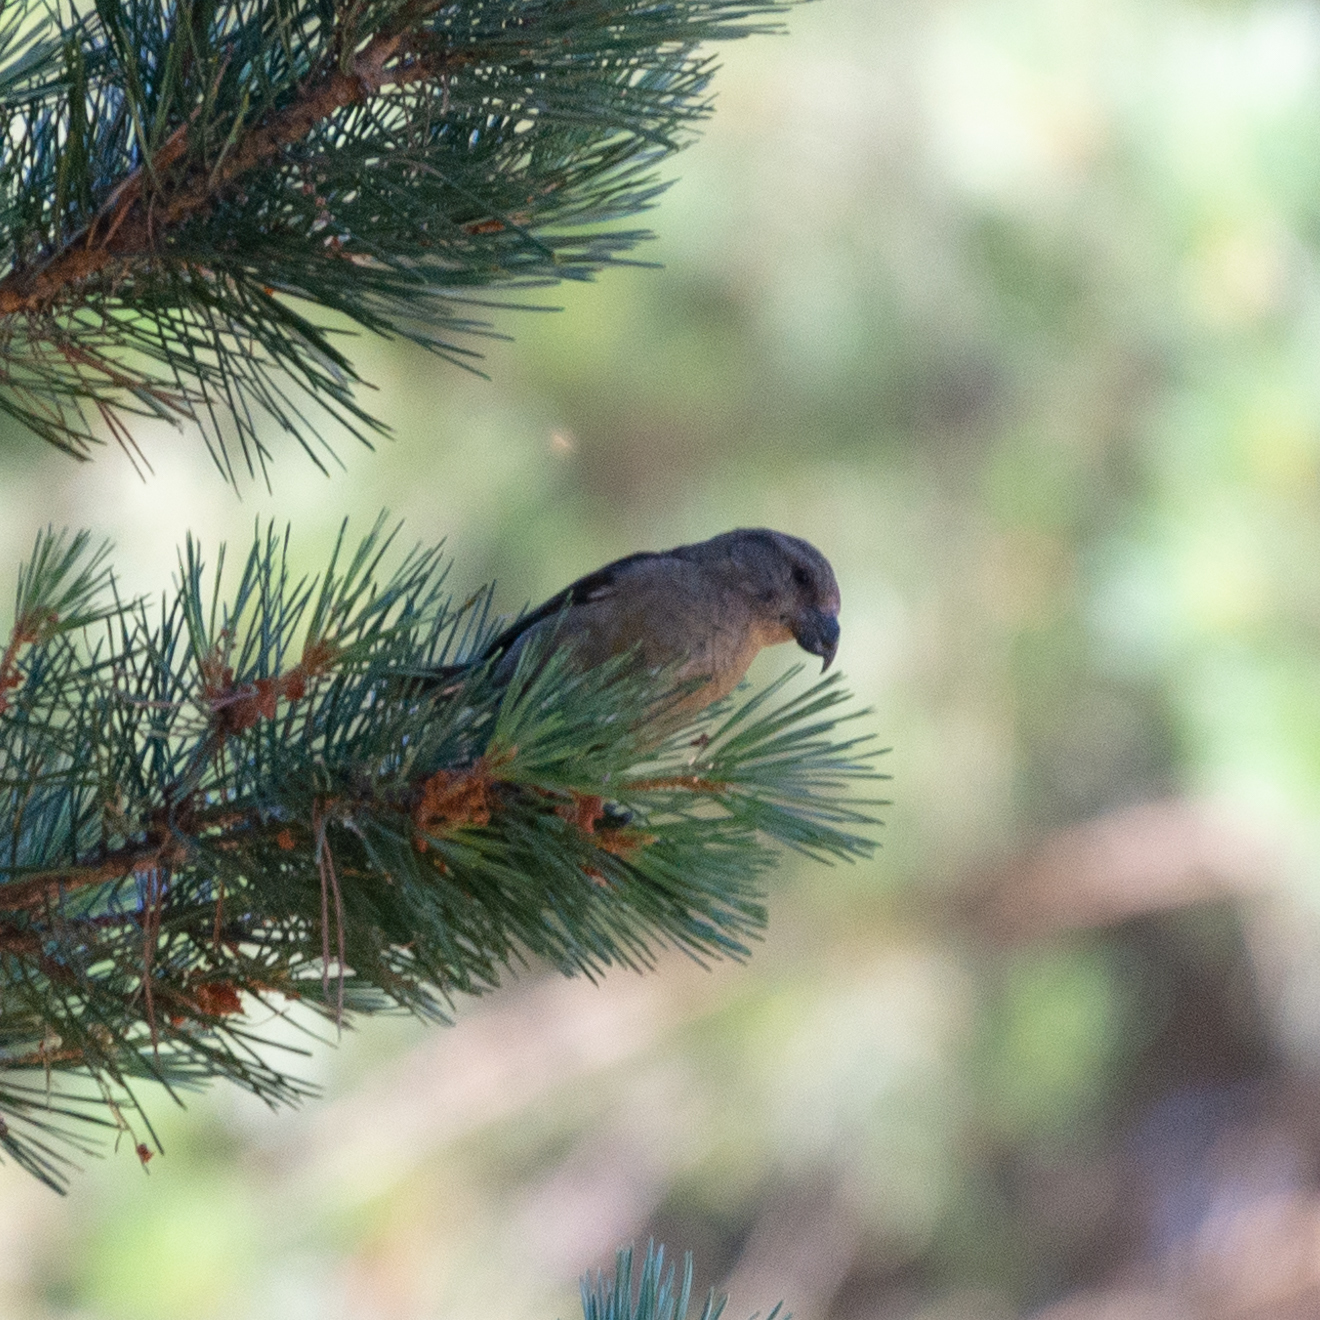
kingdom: Animalia
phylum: Chordata
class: Aves
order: Passeriformes
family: Fringillidae
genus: Loxia
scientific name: Loxia curvirostra
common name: Red crossbill
